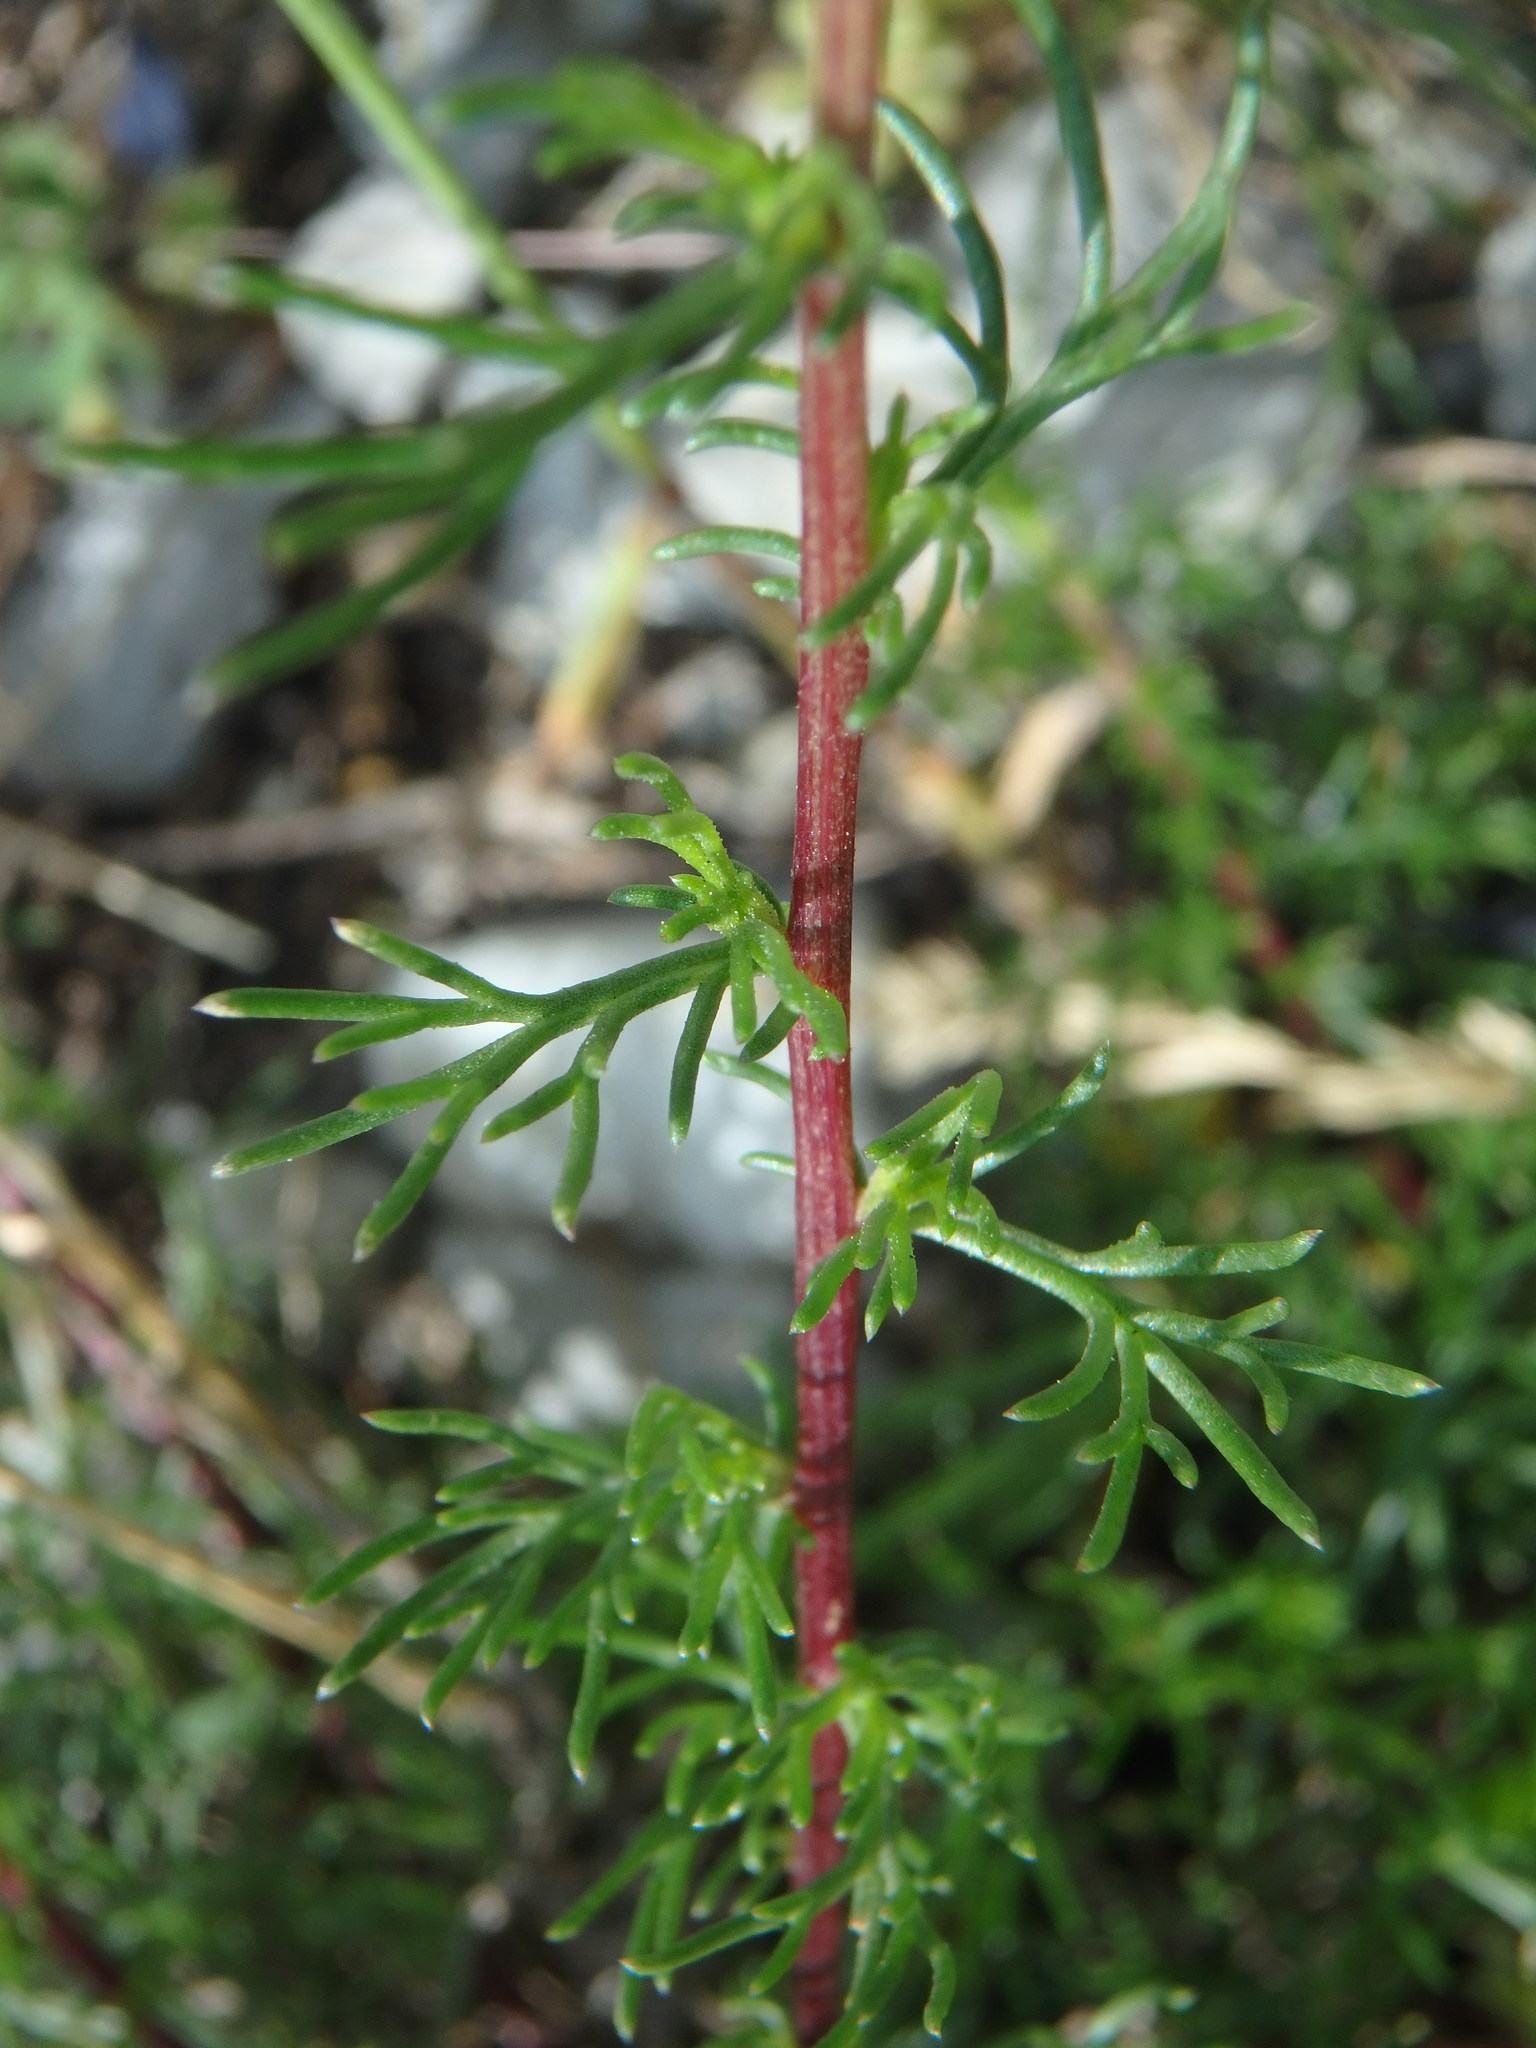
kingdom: Plantae
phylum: Tracheophyta
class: Magnoliopsida
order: Asterales
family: Asteraceae
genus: Artemisia
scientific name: Artemisia campestris
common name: Field wormwood
